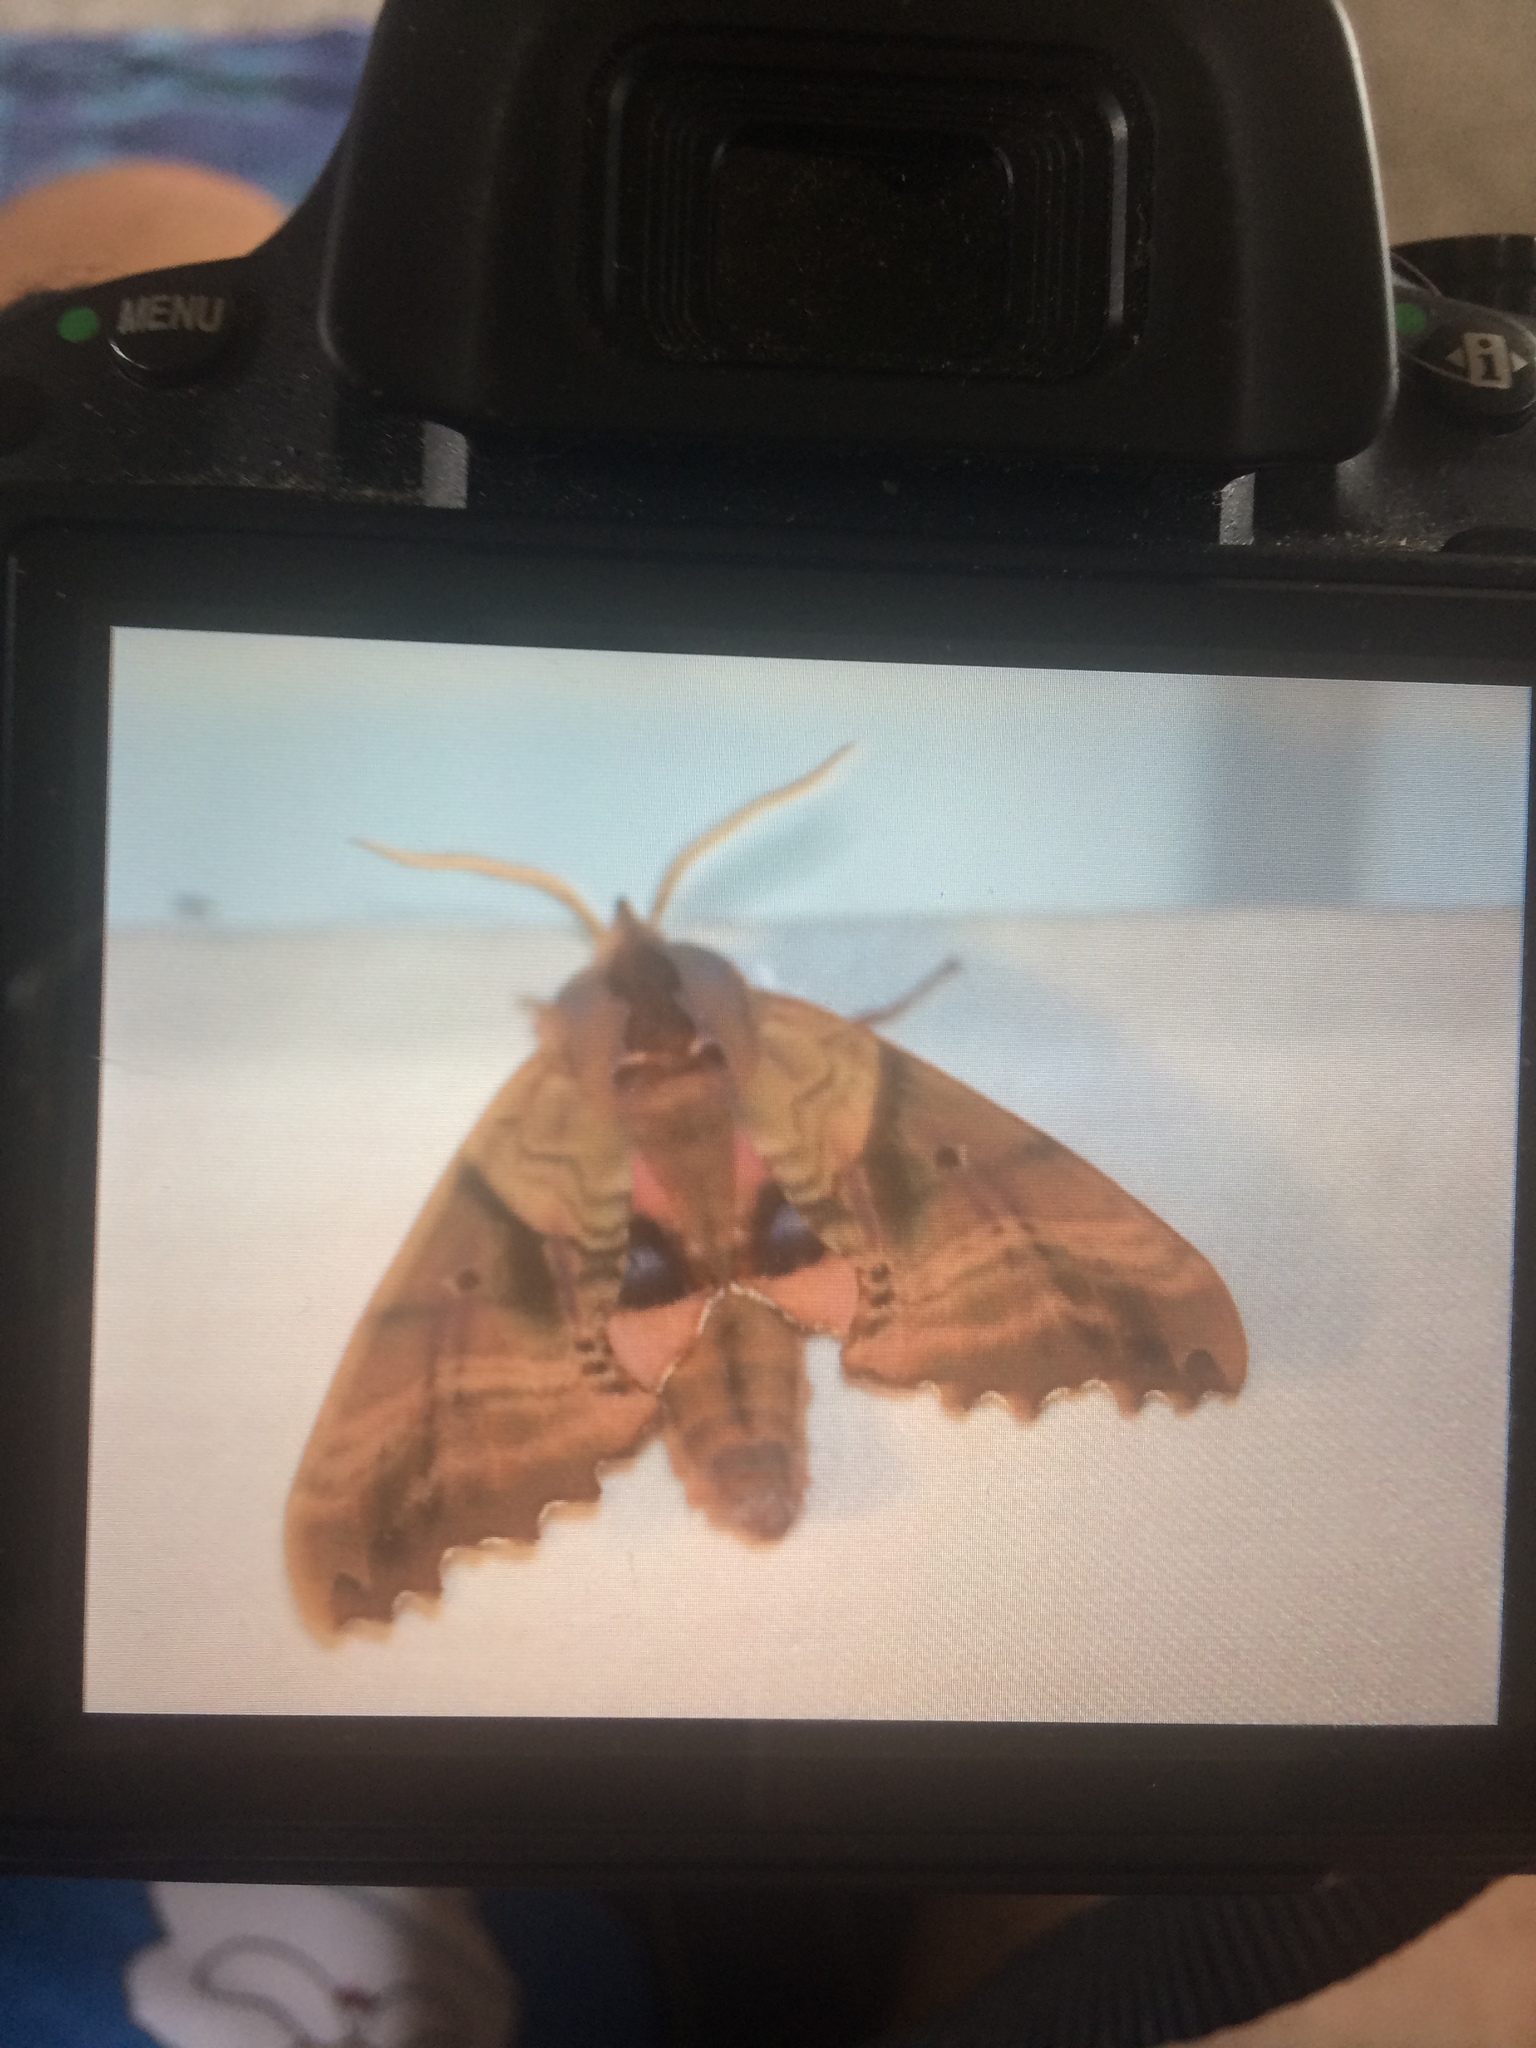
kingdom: Animalia
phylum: Arthropoda
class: Insecta
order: Lepidoptera
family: Sphingidae
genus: Paonias
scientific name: Paonias excaecata
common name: Blind-eyed sphinx
